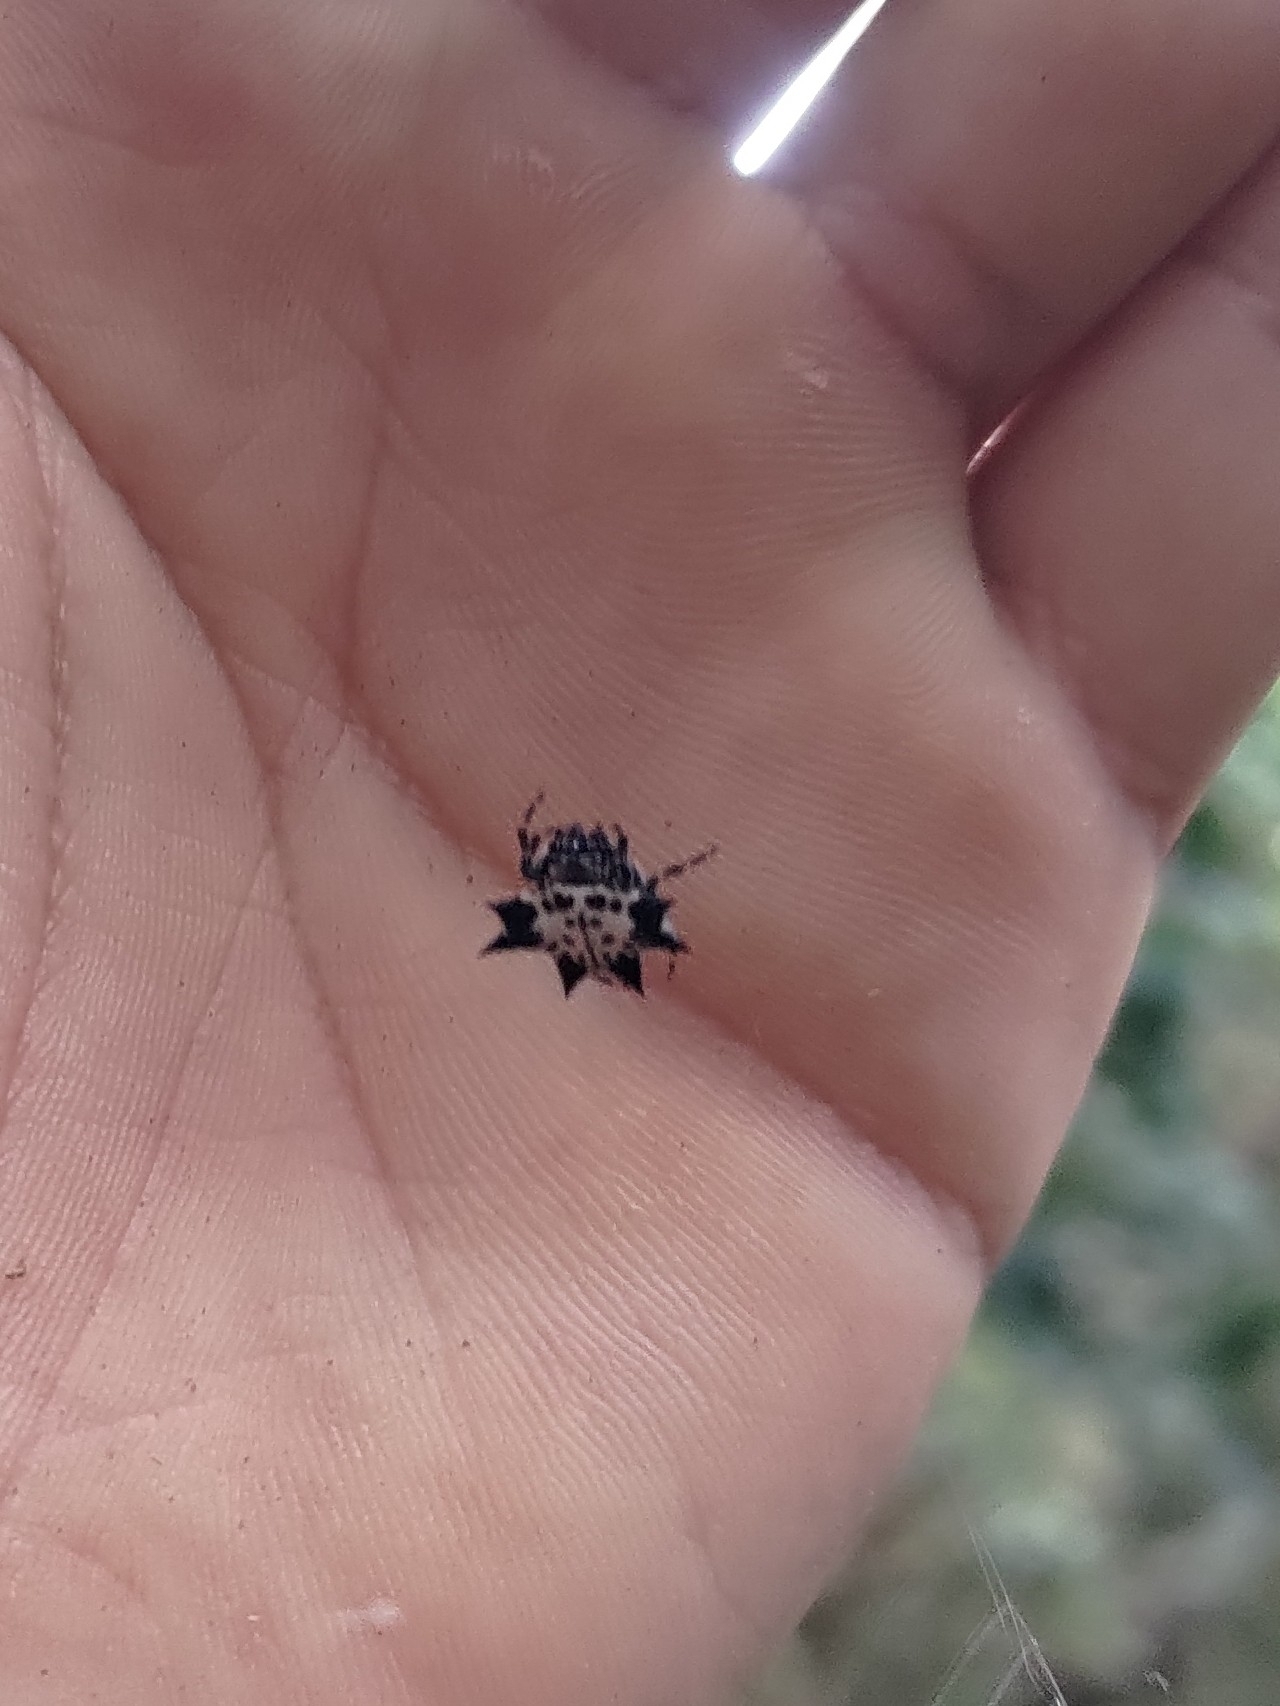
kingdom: Animalia
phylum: Arthropoda
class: Arachnida
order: Araneae
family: Araneidae
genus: Gasteracantha
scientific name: Gasteracantha kuhli
